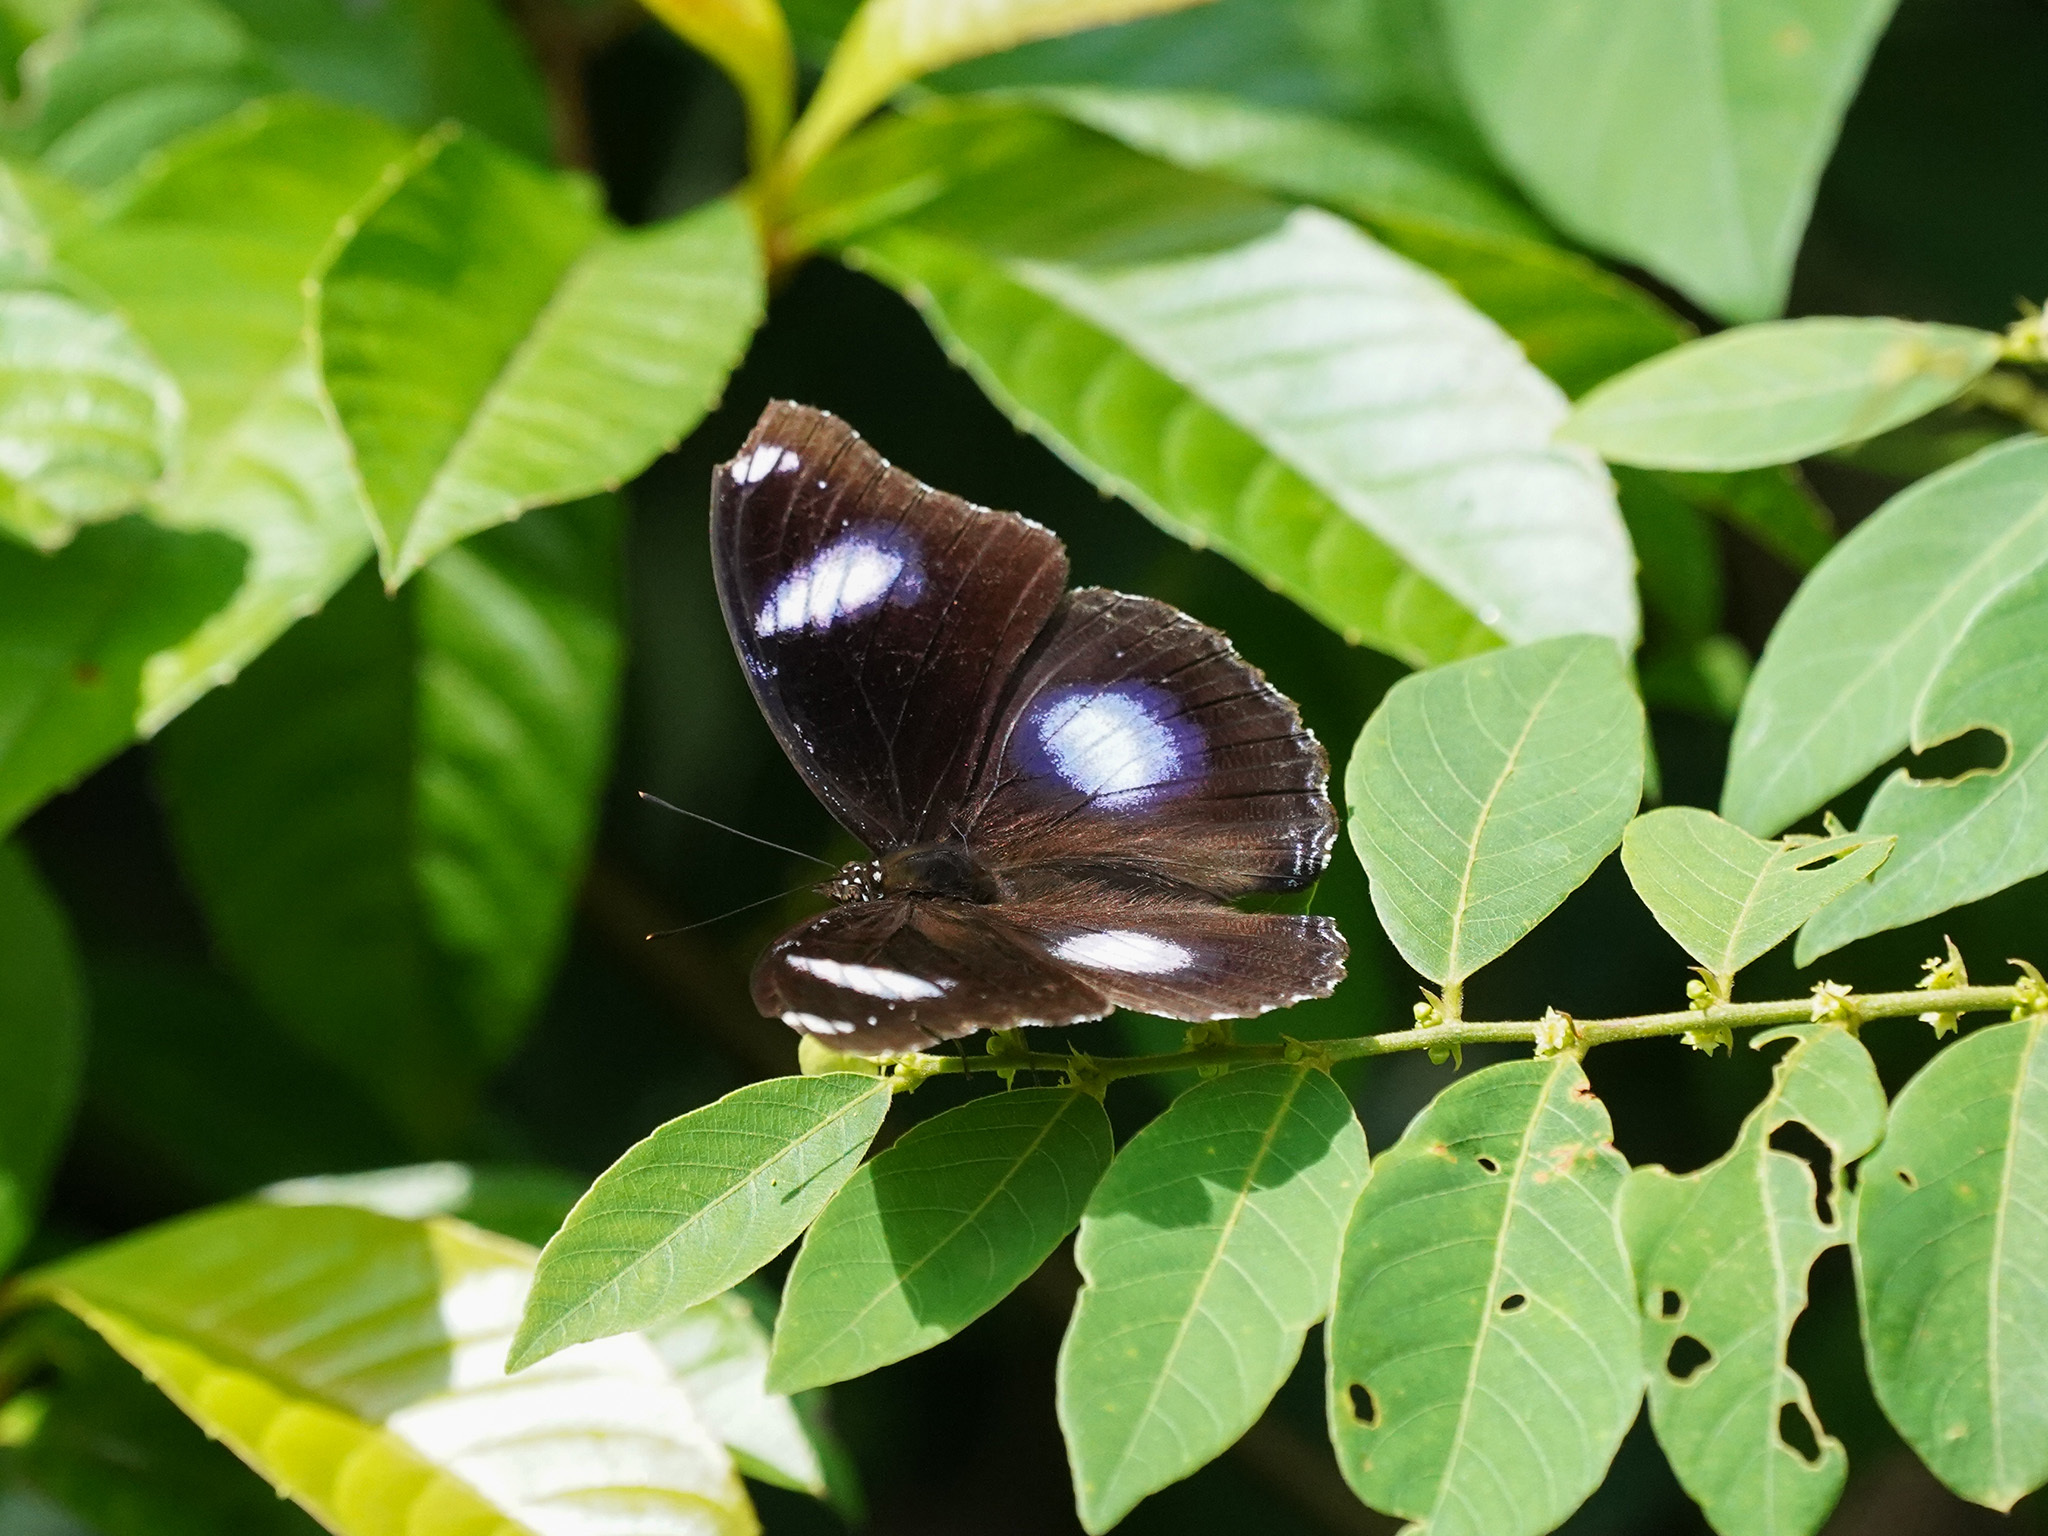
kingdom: Animalia
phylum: Arthropoda
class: Insecta
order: Lepidoptera
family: Nymphalidae
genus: Hypolimnas
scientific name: Hypolimnas bolina
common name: Great eggfly
